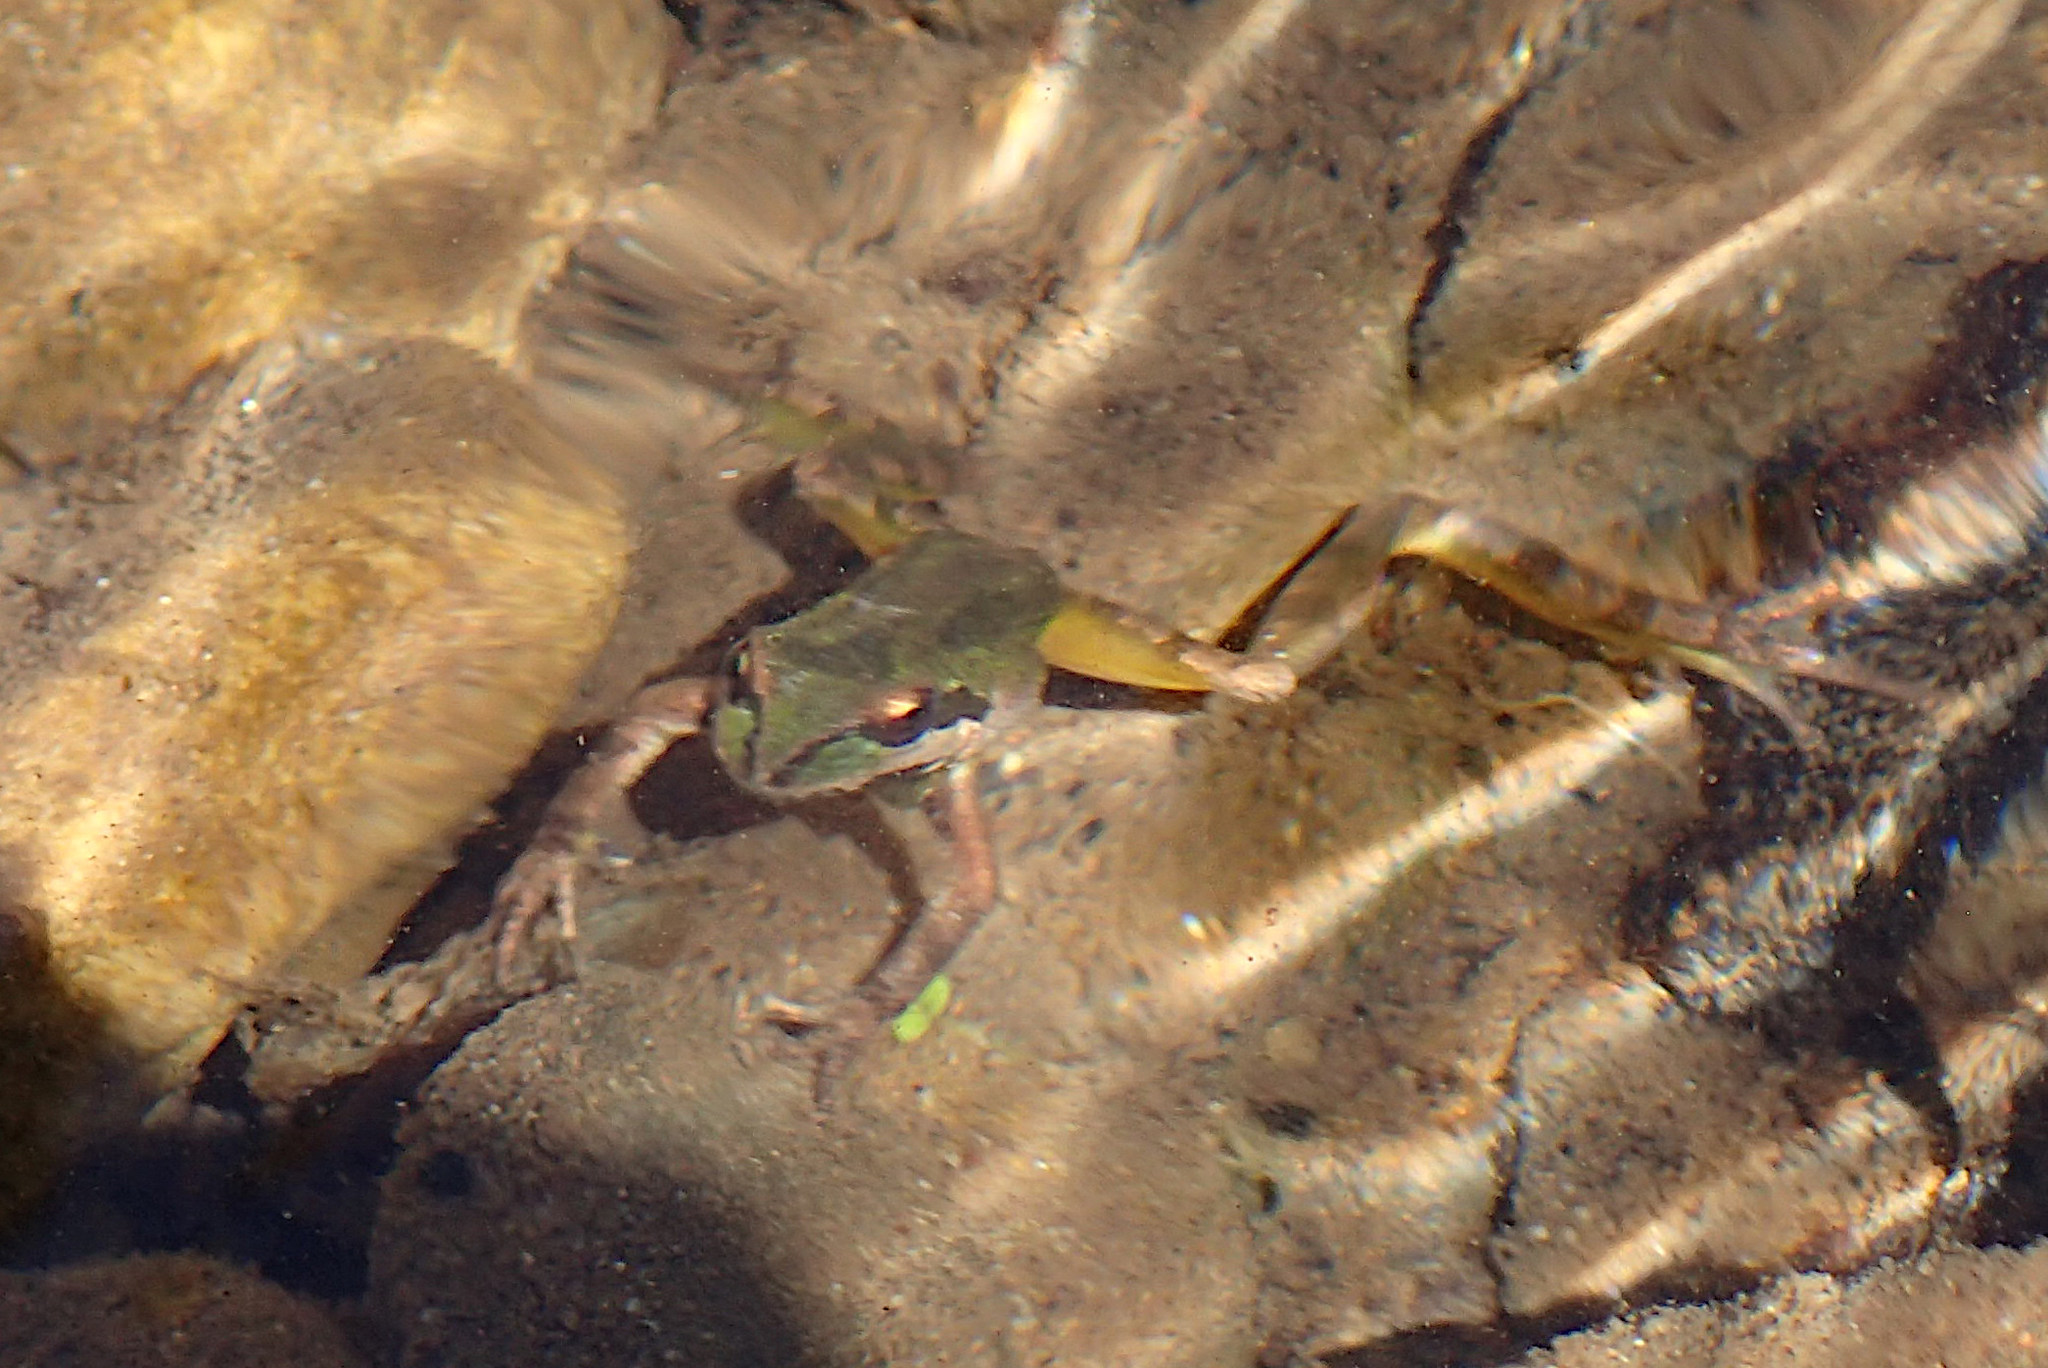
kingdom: Animalia
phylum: Chordata
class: Amphibia
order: Anura
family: Hylidae
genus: Pseudacris
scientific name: Pseudacris regilla
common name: Pacific chorus frog
